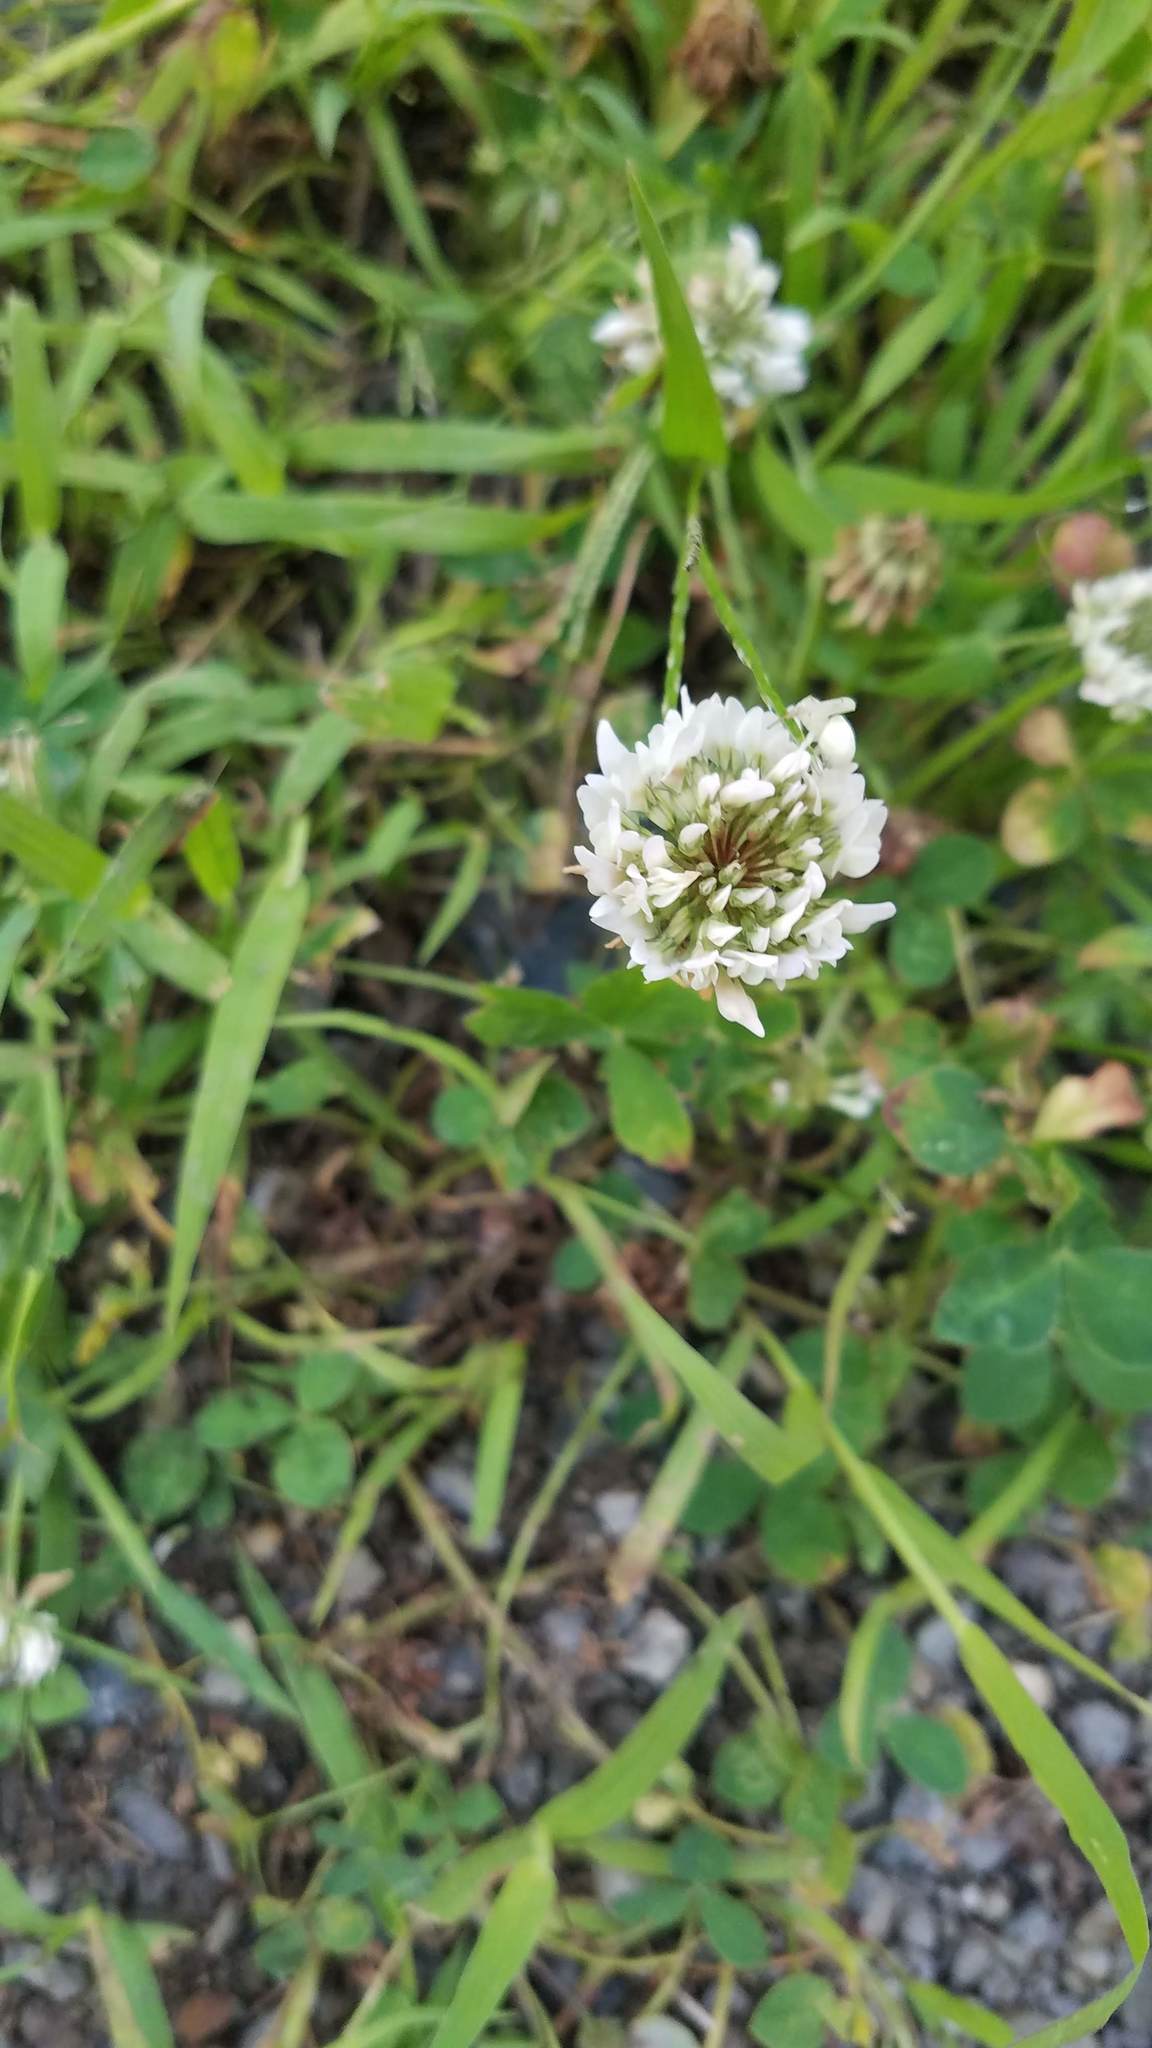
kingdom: Plantae
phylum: Tracheophyta
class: Magnoliopsida
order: Fabales
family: Fabaceae
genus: Trifolium
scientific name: Trifolium repens
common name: White clover
